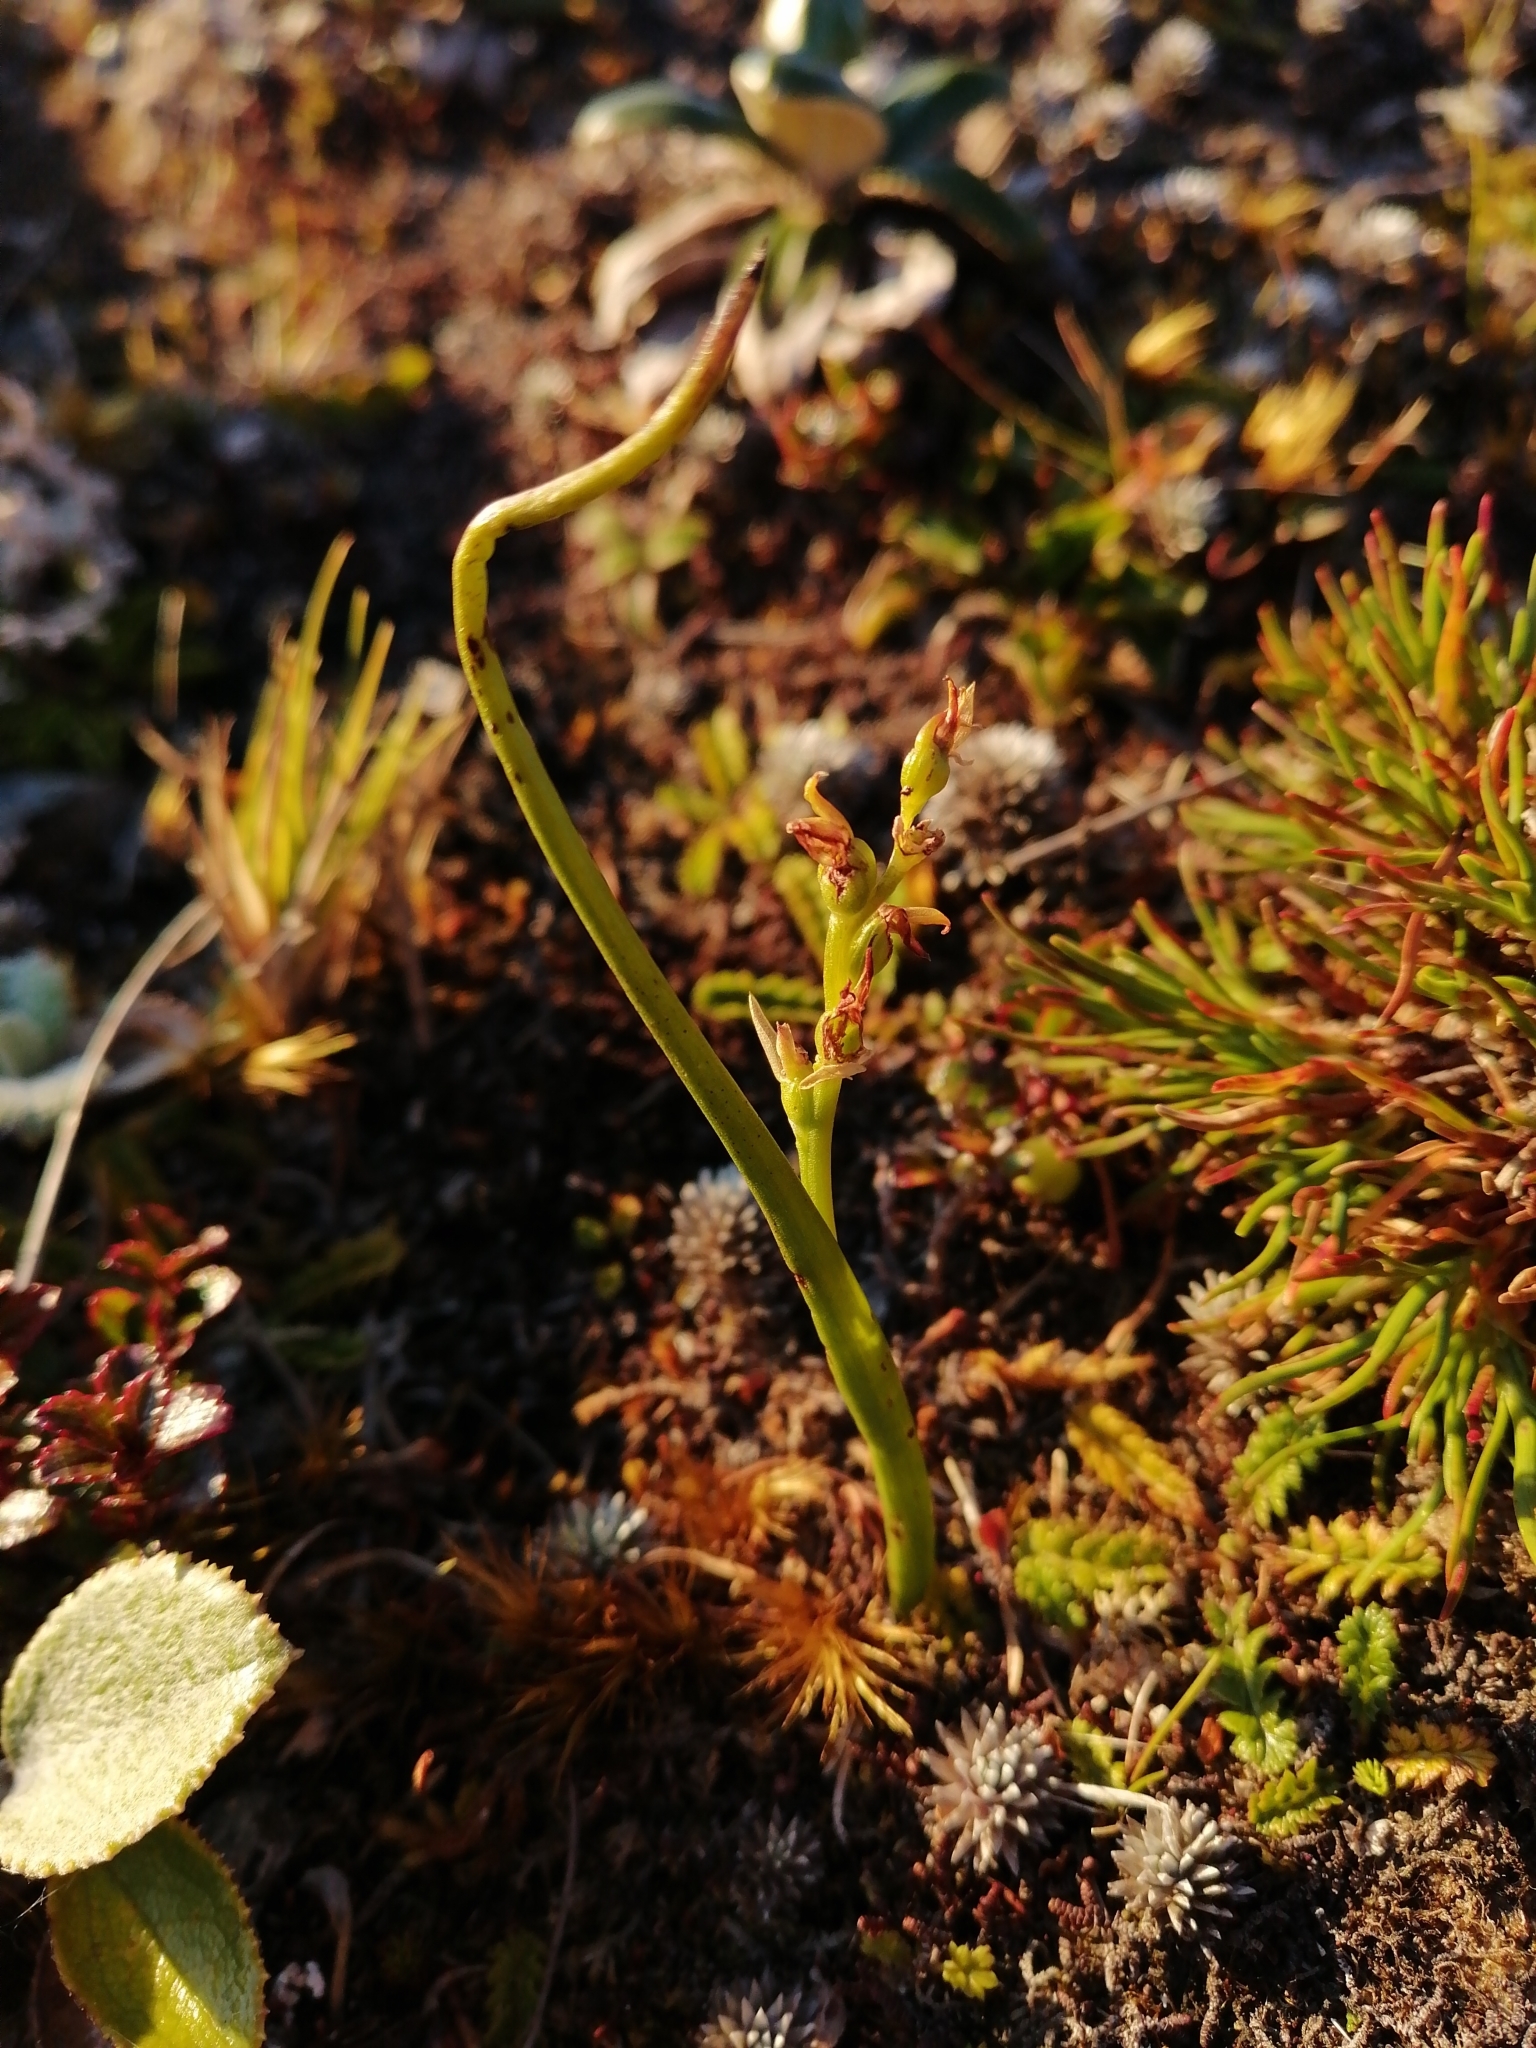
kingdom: Plantae
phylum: Tracheophyta
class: Liliopsida
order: Asparagales
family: Orchidaceae
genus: Prasophyllum
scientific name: Prasophyllum colensoi
